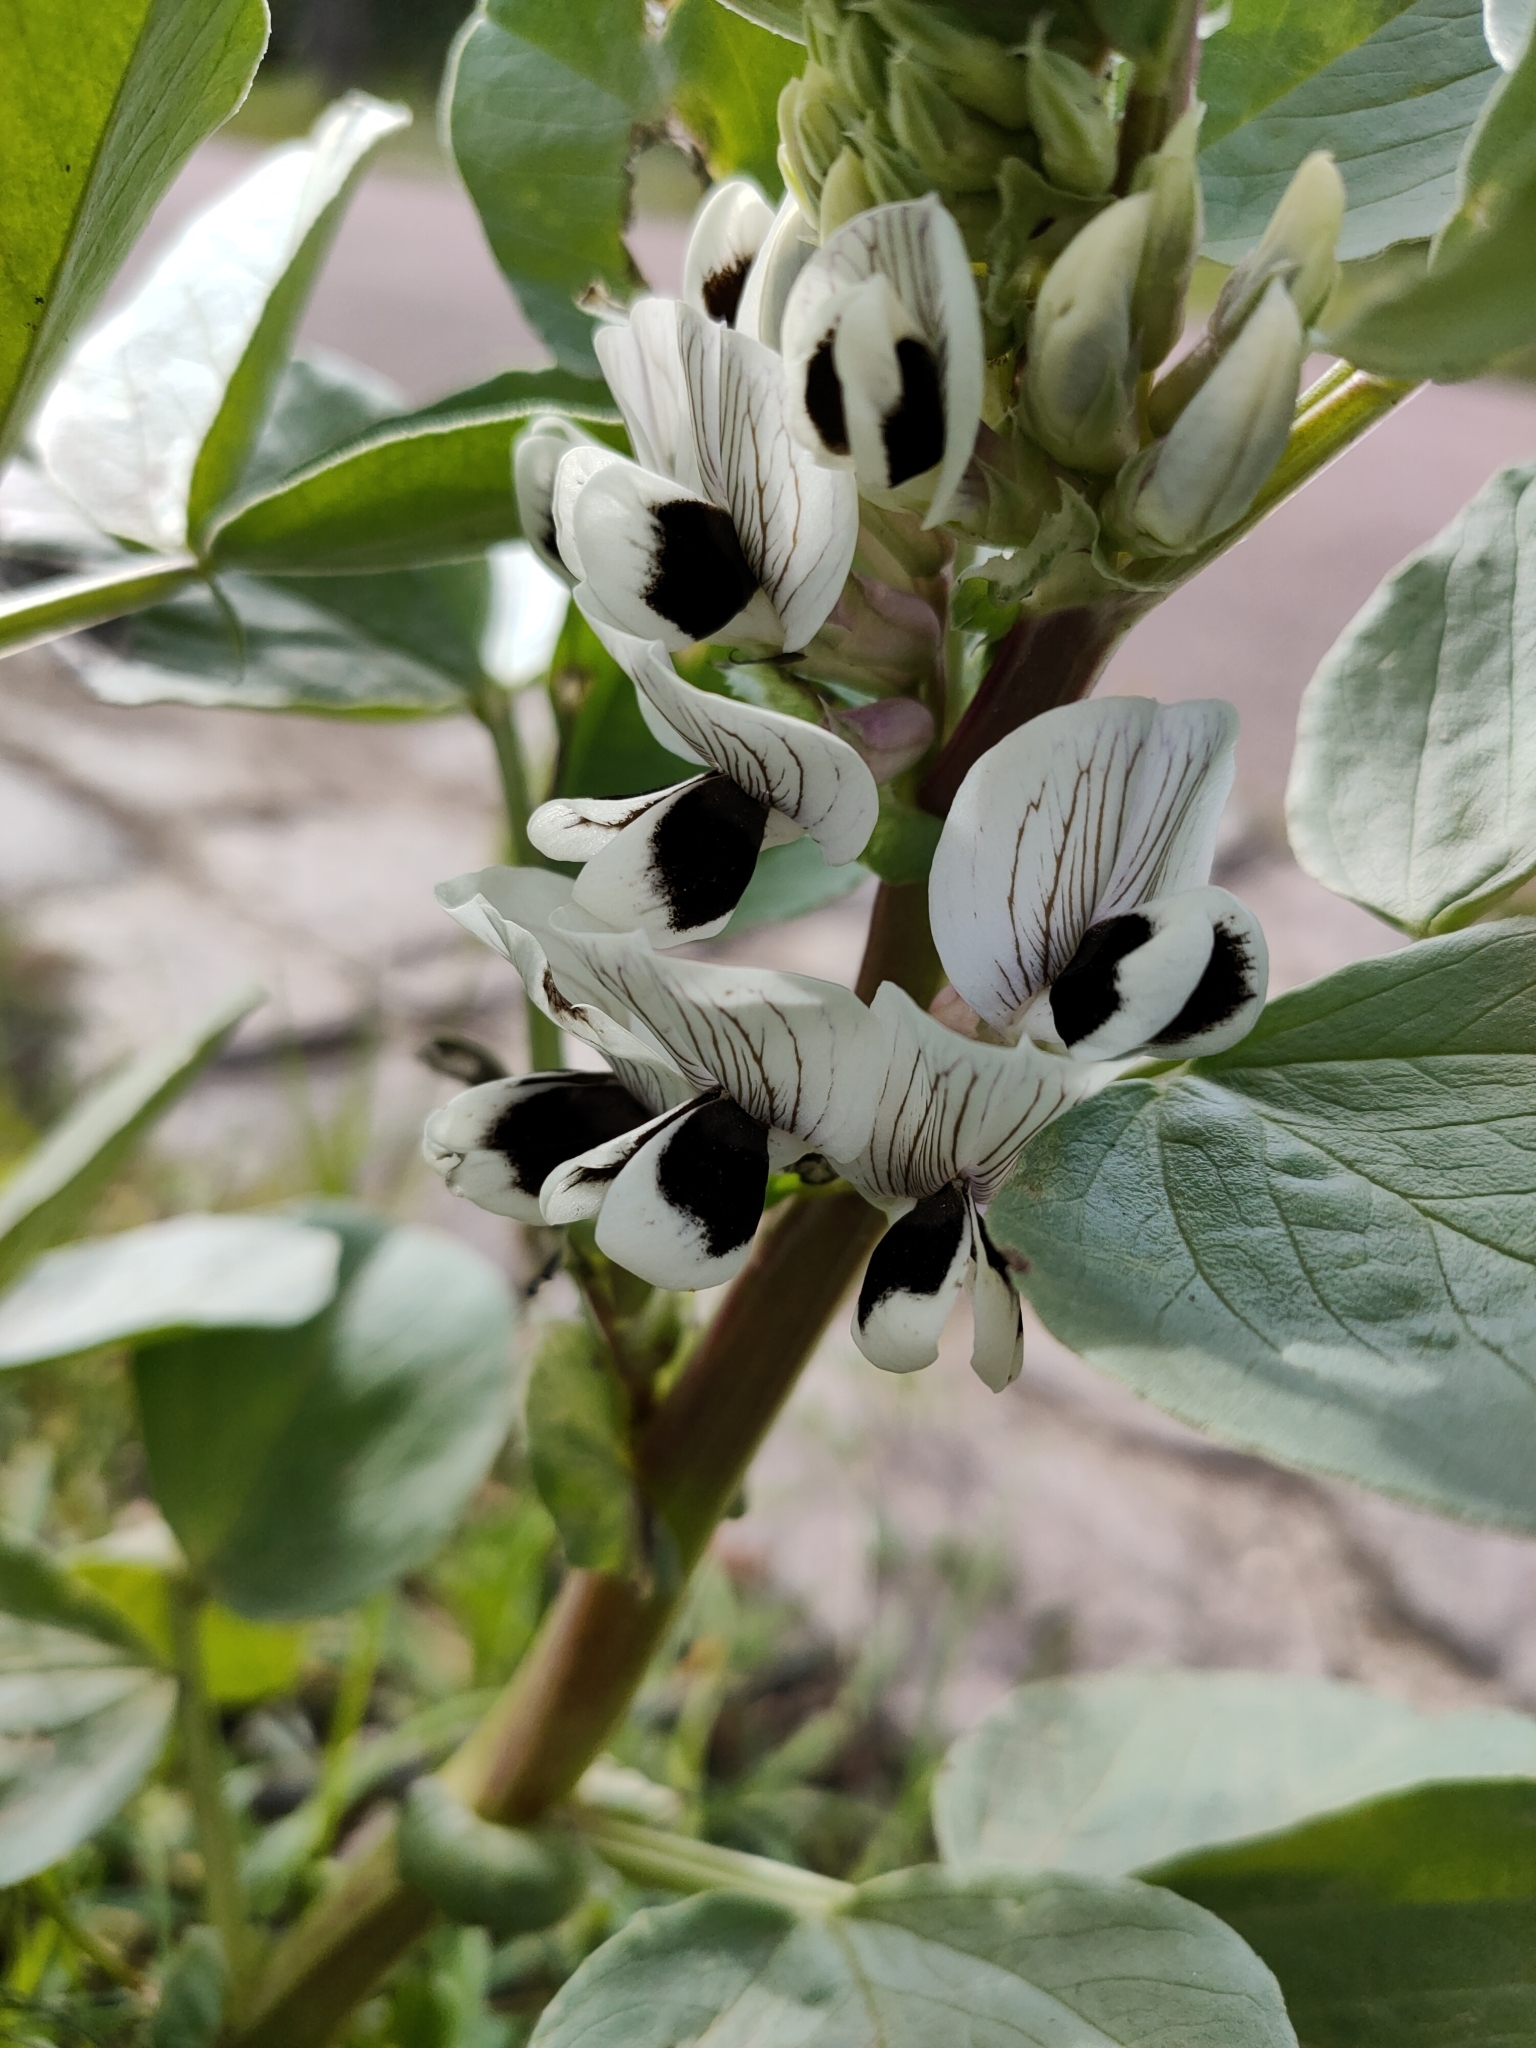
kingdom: Plantae
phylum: Tracheophyta
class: Magnoliopsida
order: Fabales
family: Fabaceae
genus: Vicia
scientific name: Vicia faba
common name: Broad bean
